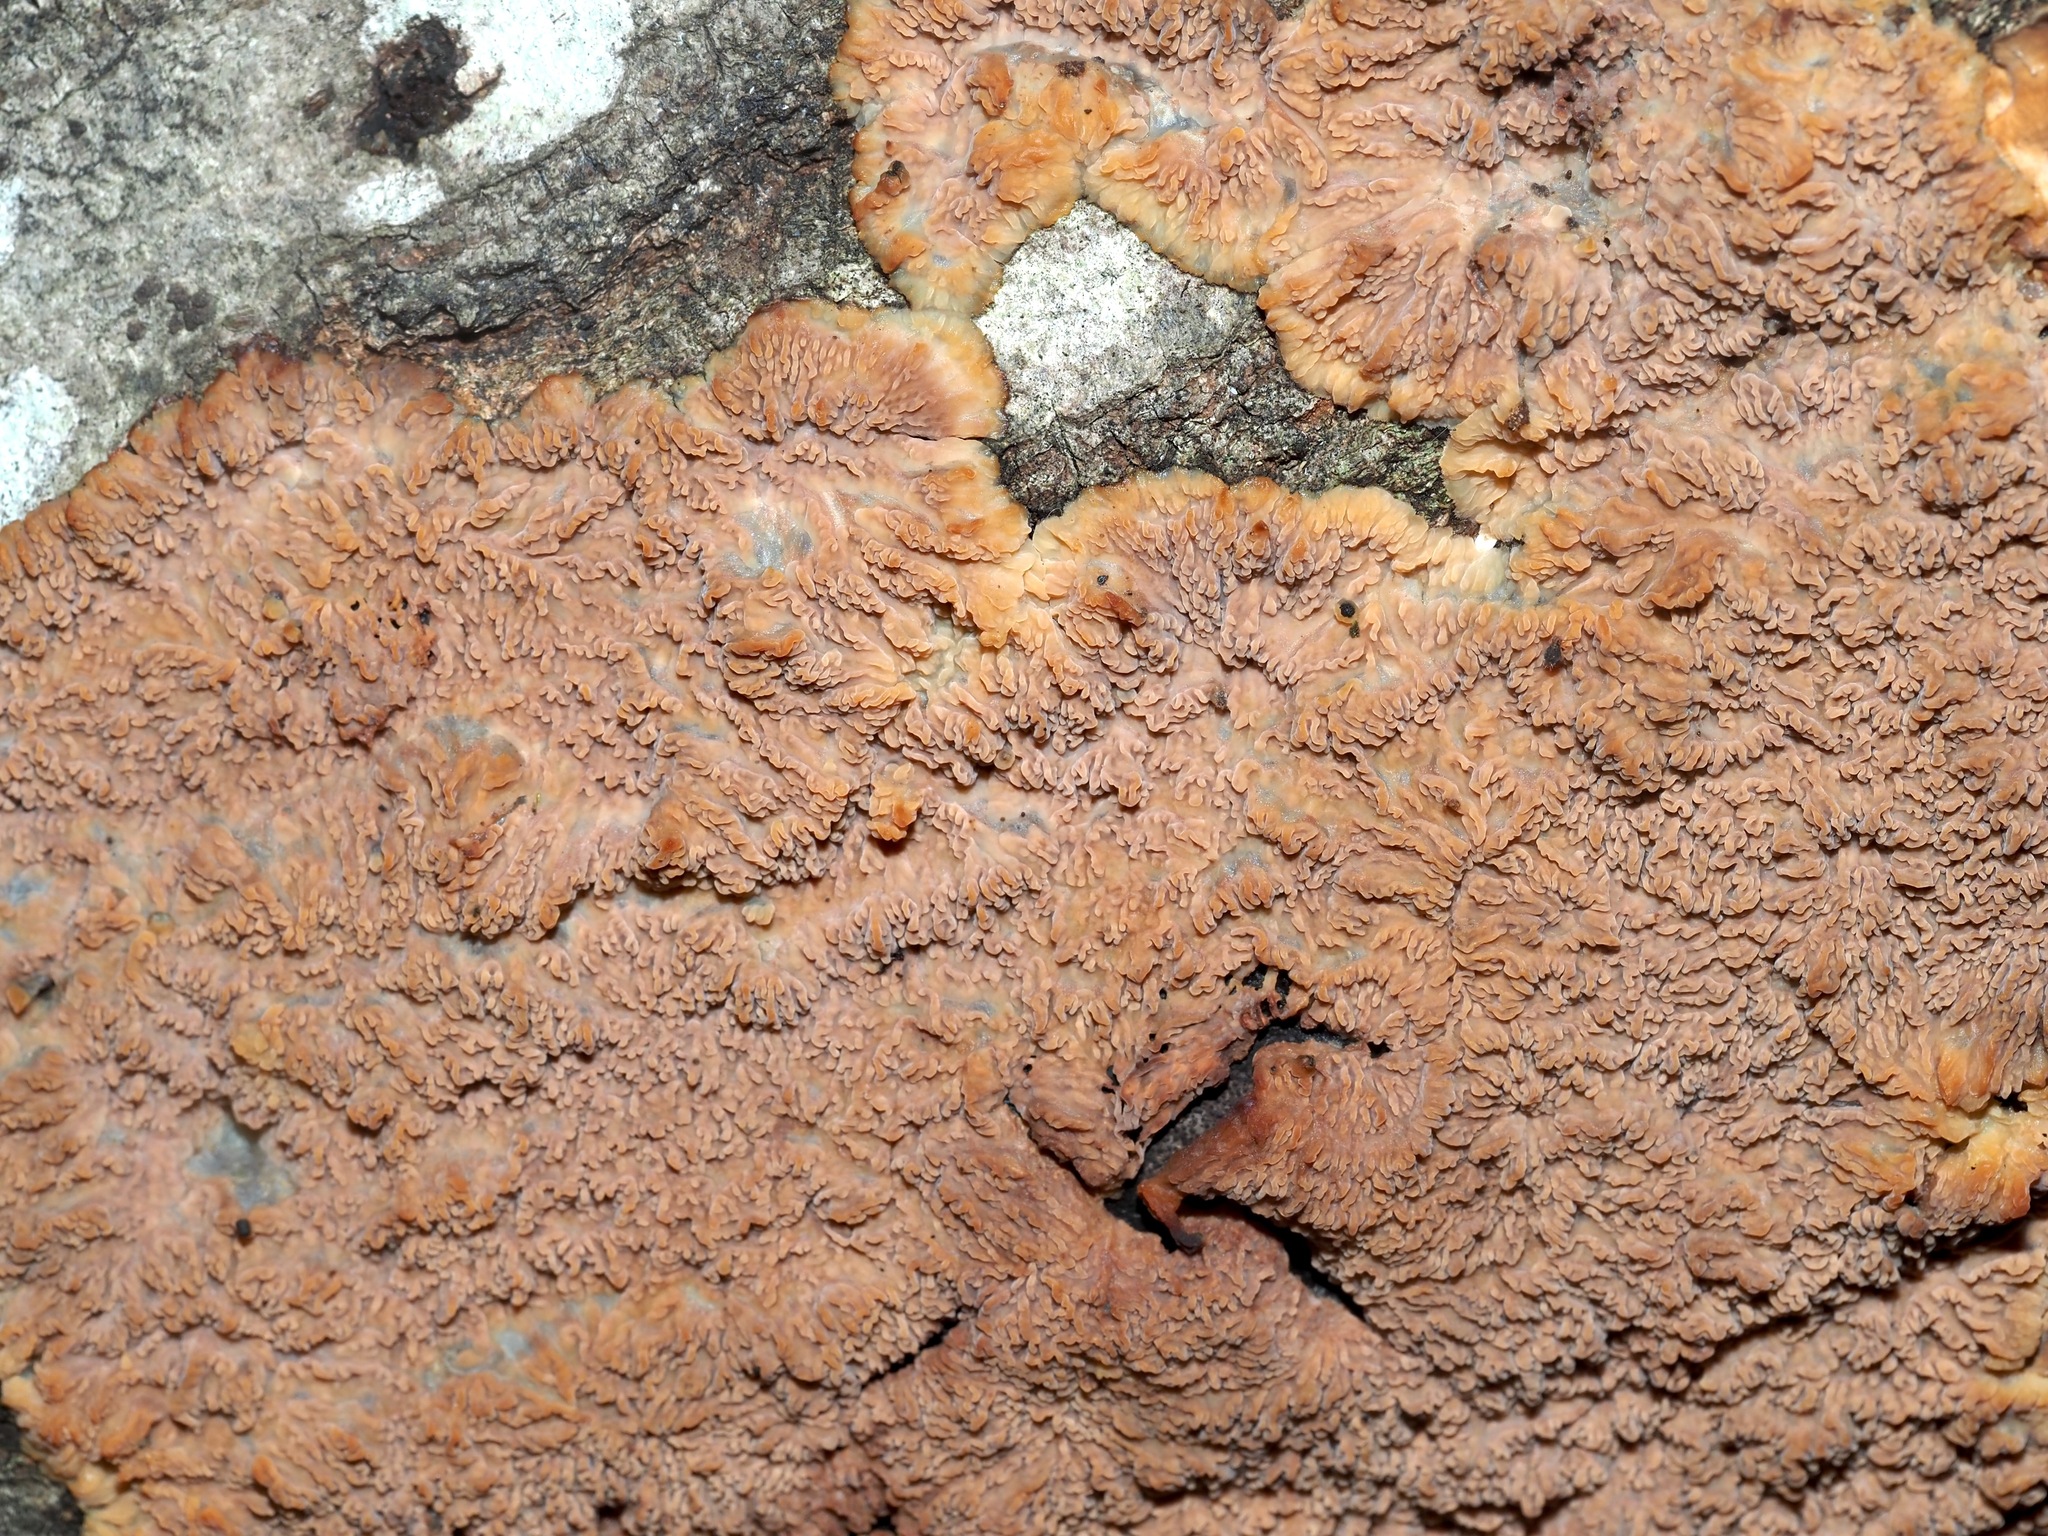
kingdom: Fungi
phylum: Basidiomycota
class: Agaricomycetes
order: Polyporales
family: Meruliaceae
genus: Phlebia
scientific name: Phlebia radiata
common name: Wrinkled crust
